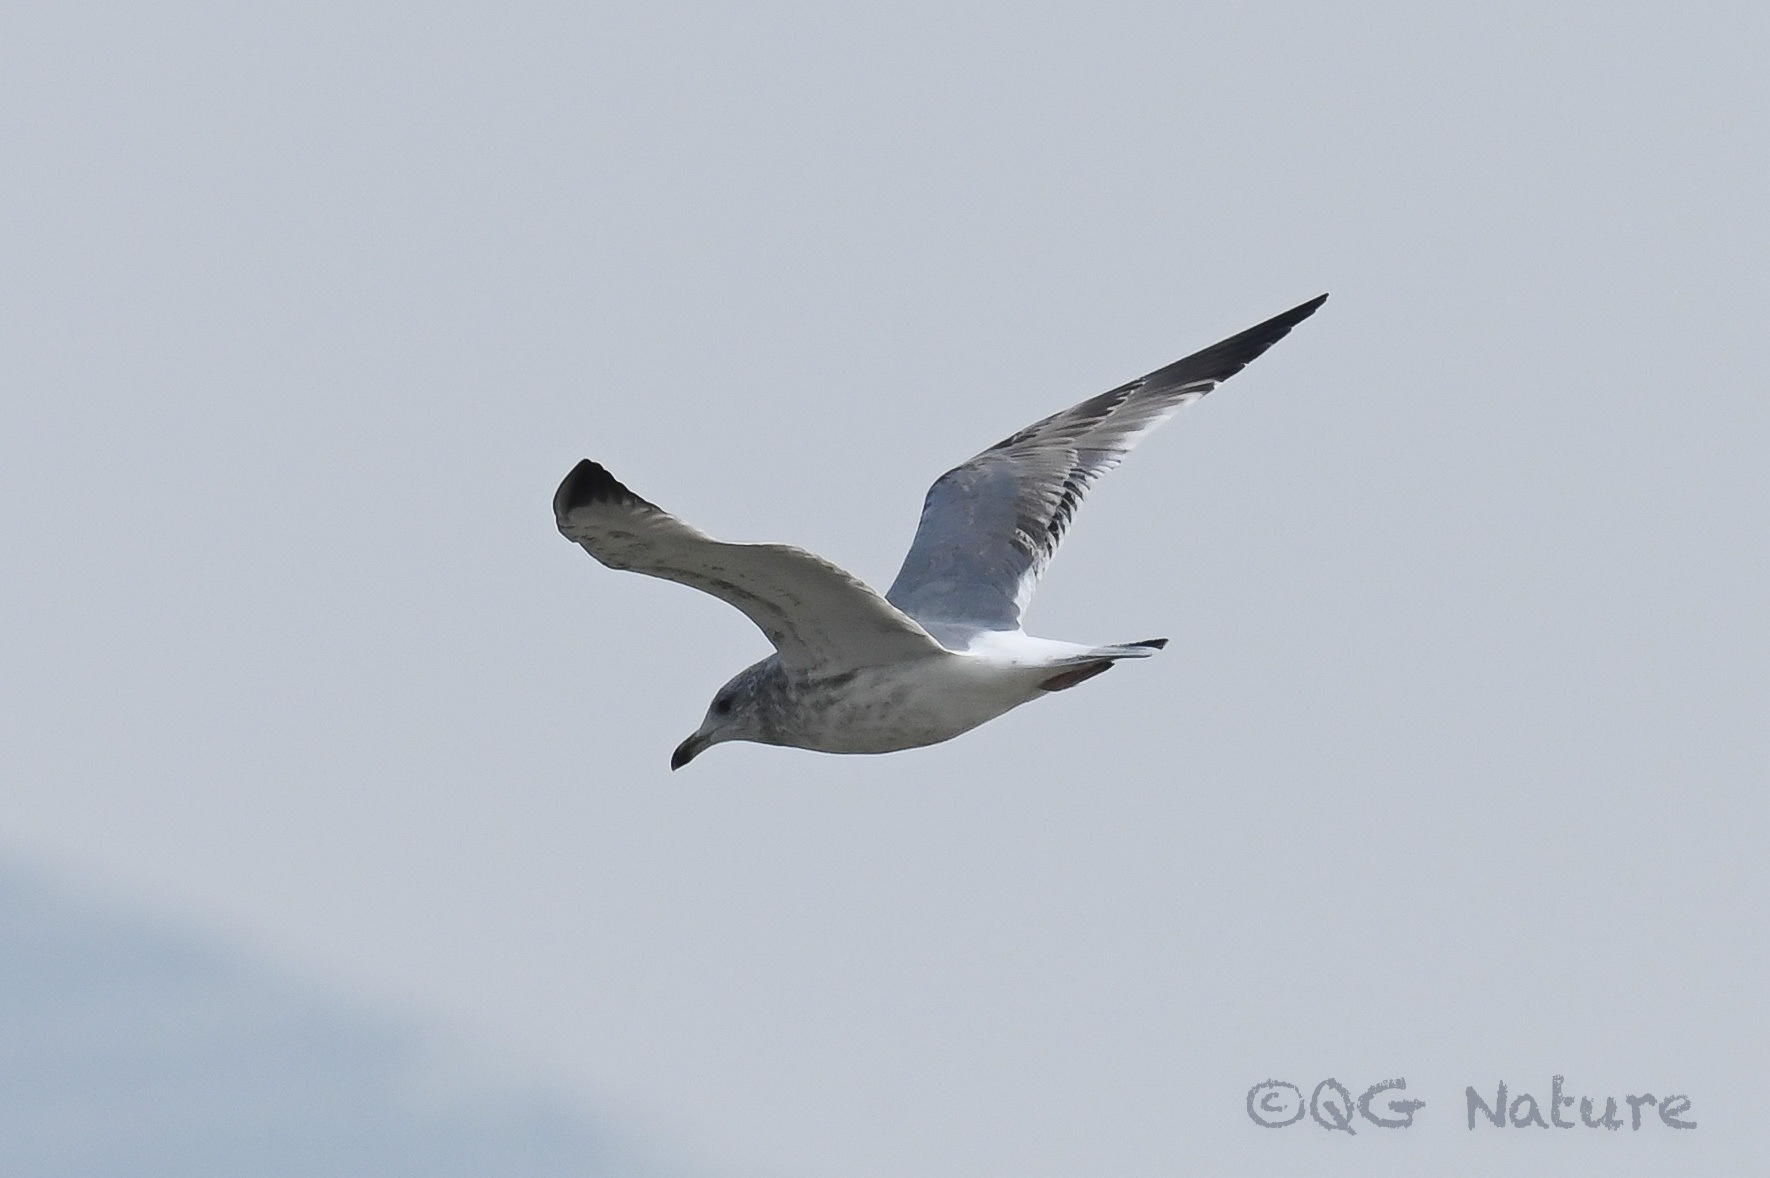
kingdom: Animalia
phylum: Chordata
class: Aves
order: Charadriiformes
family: Laridae
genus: Larus
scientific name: Larus vegae
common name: Vega gull
